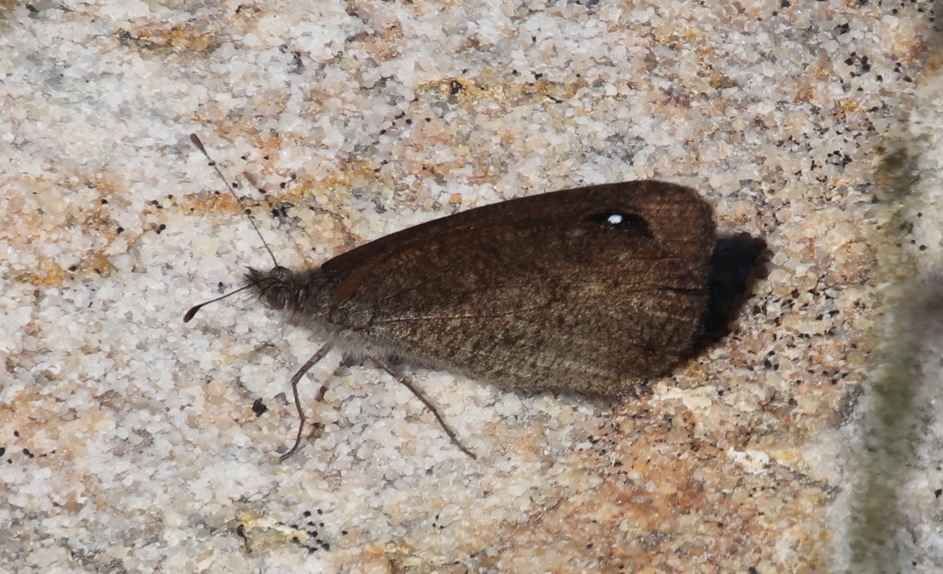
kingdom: Animalia
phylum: Arthropoda
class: Insecta
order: Lepidoptera
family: Nymphalidae
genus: Stygionympha
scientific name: Stygionympha vigilans
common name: Western hillside brown
